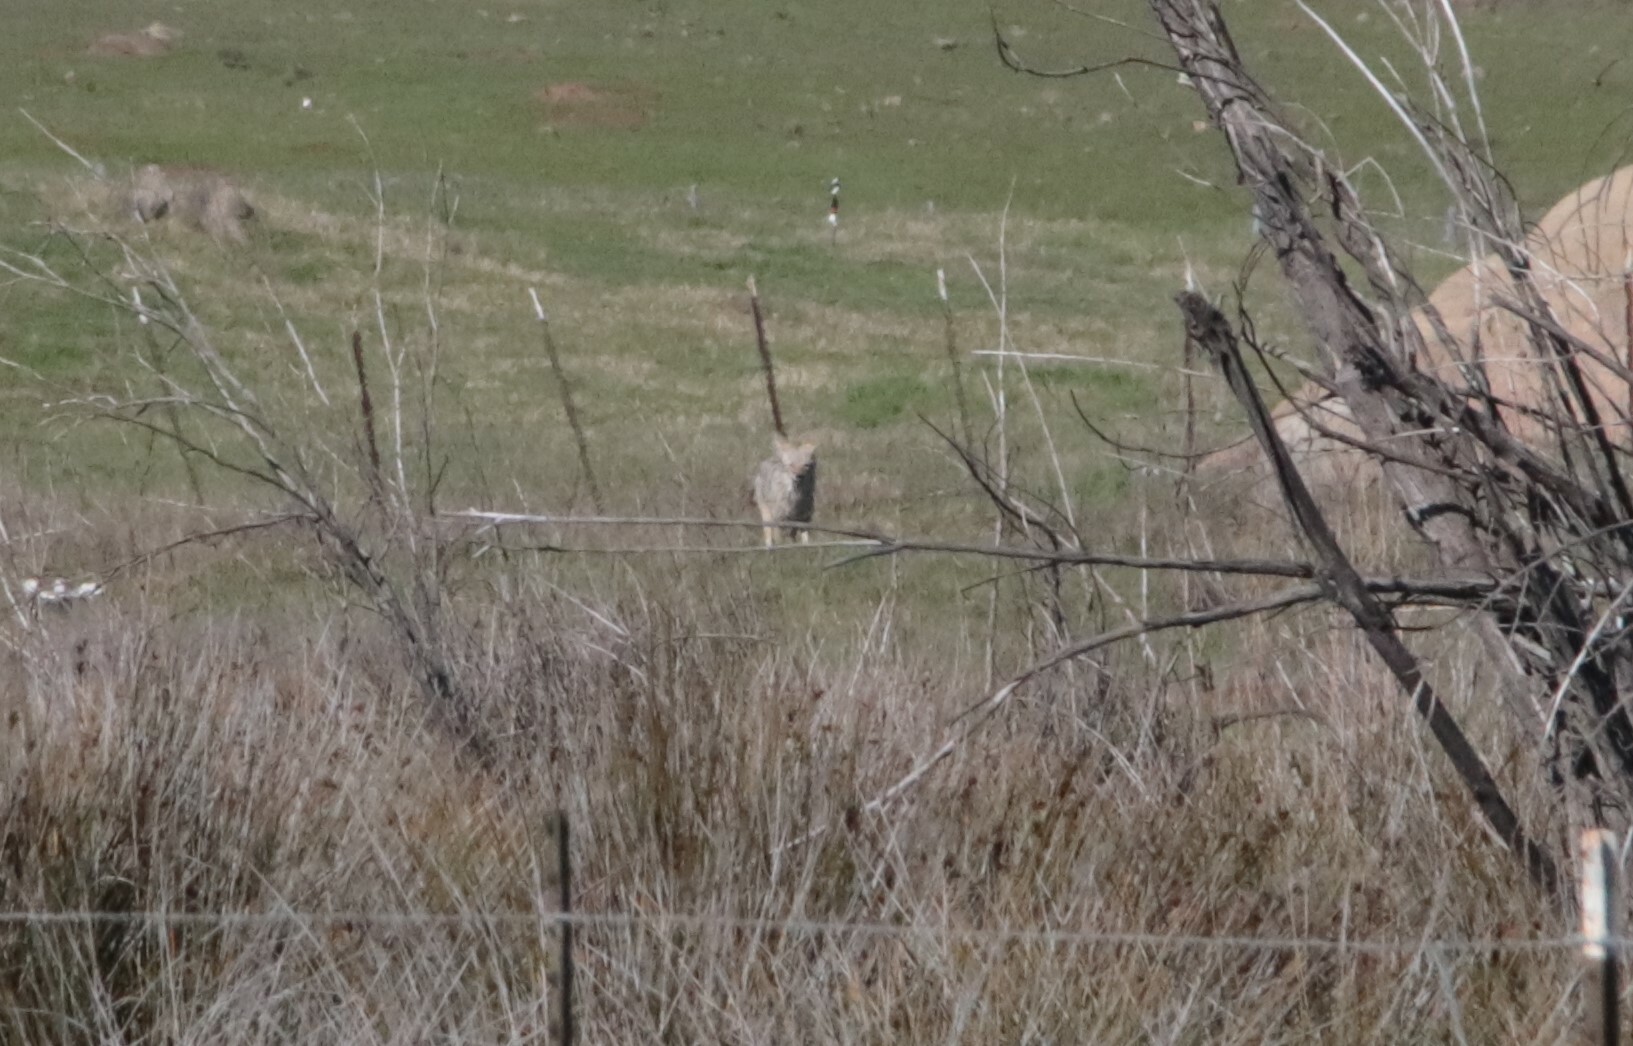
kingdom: Animalia
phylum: Chordata
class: Mammalia
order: Carnivora
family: Canidae
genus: Canis
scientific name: Canis latrans
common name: Coyote
